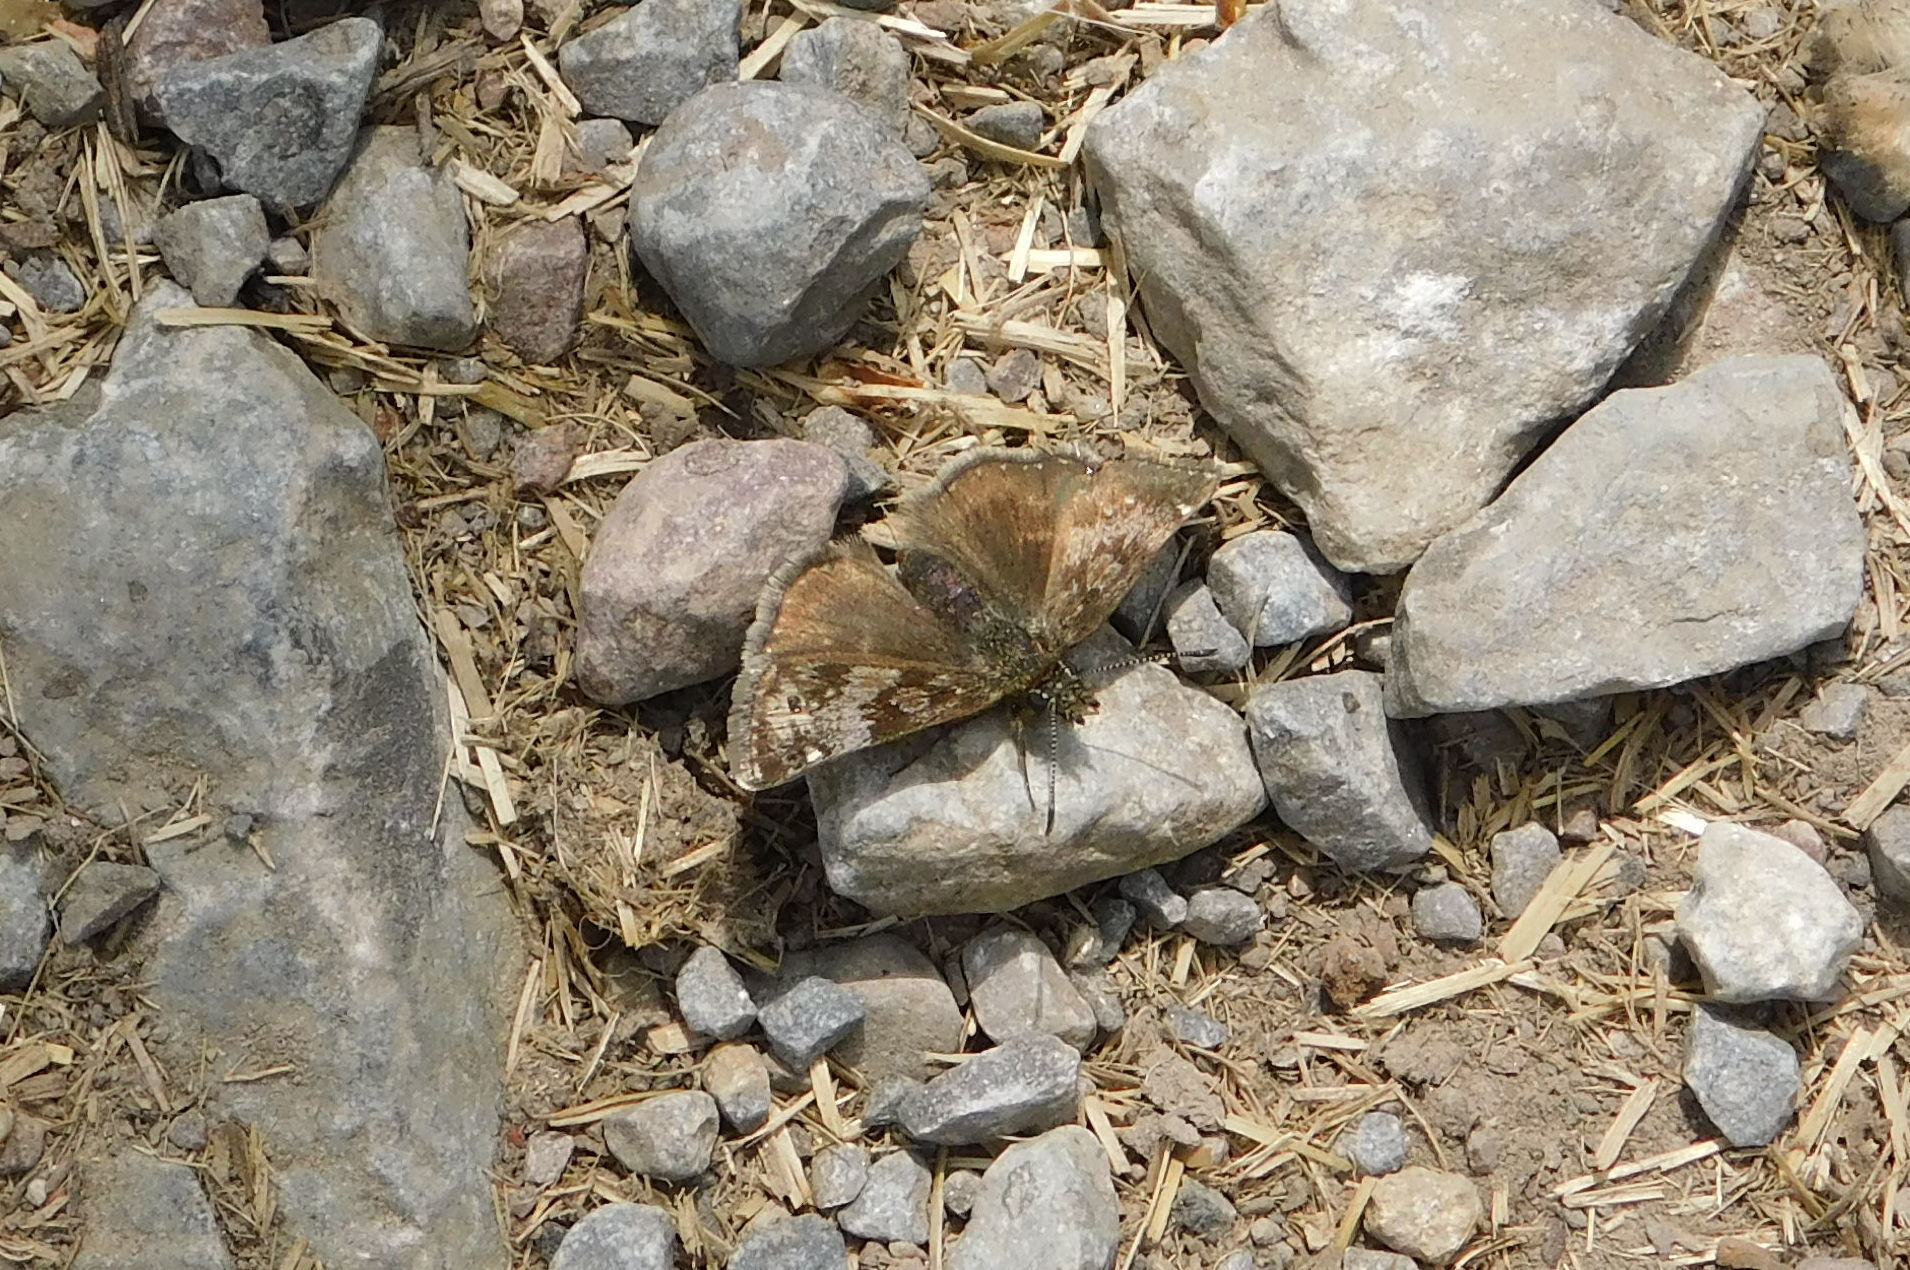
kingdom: Animalia
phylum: Arthropoda
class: Insecta
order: Lepidoptera
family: Hesperiidae
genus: Erynnis
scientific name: Erynnis tages
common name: Dingy skipper
